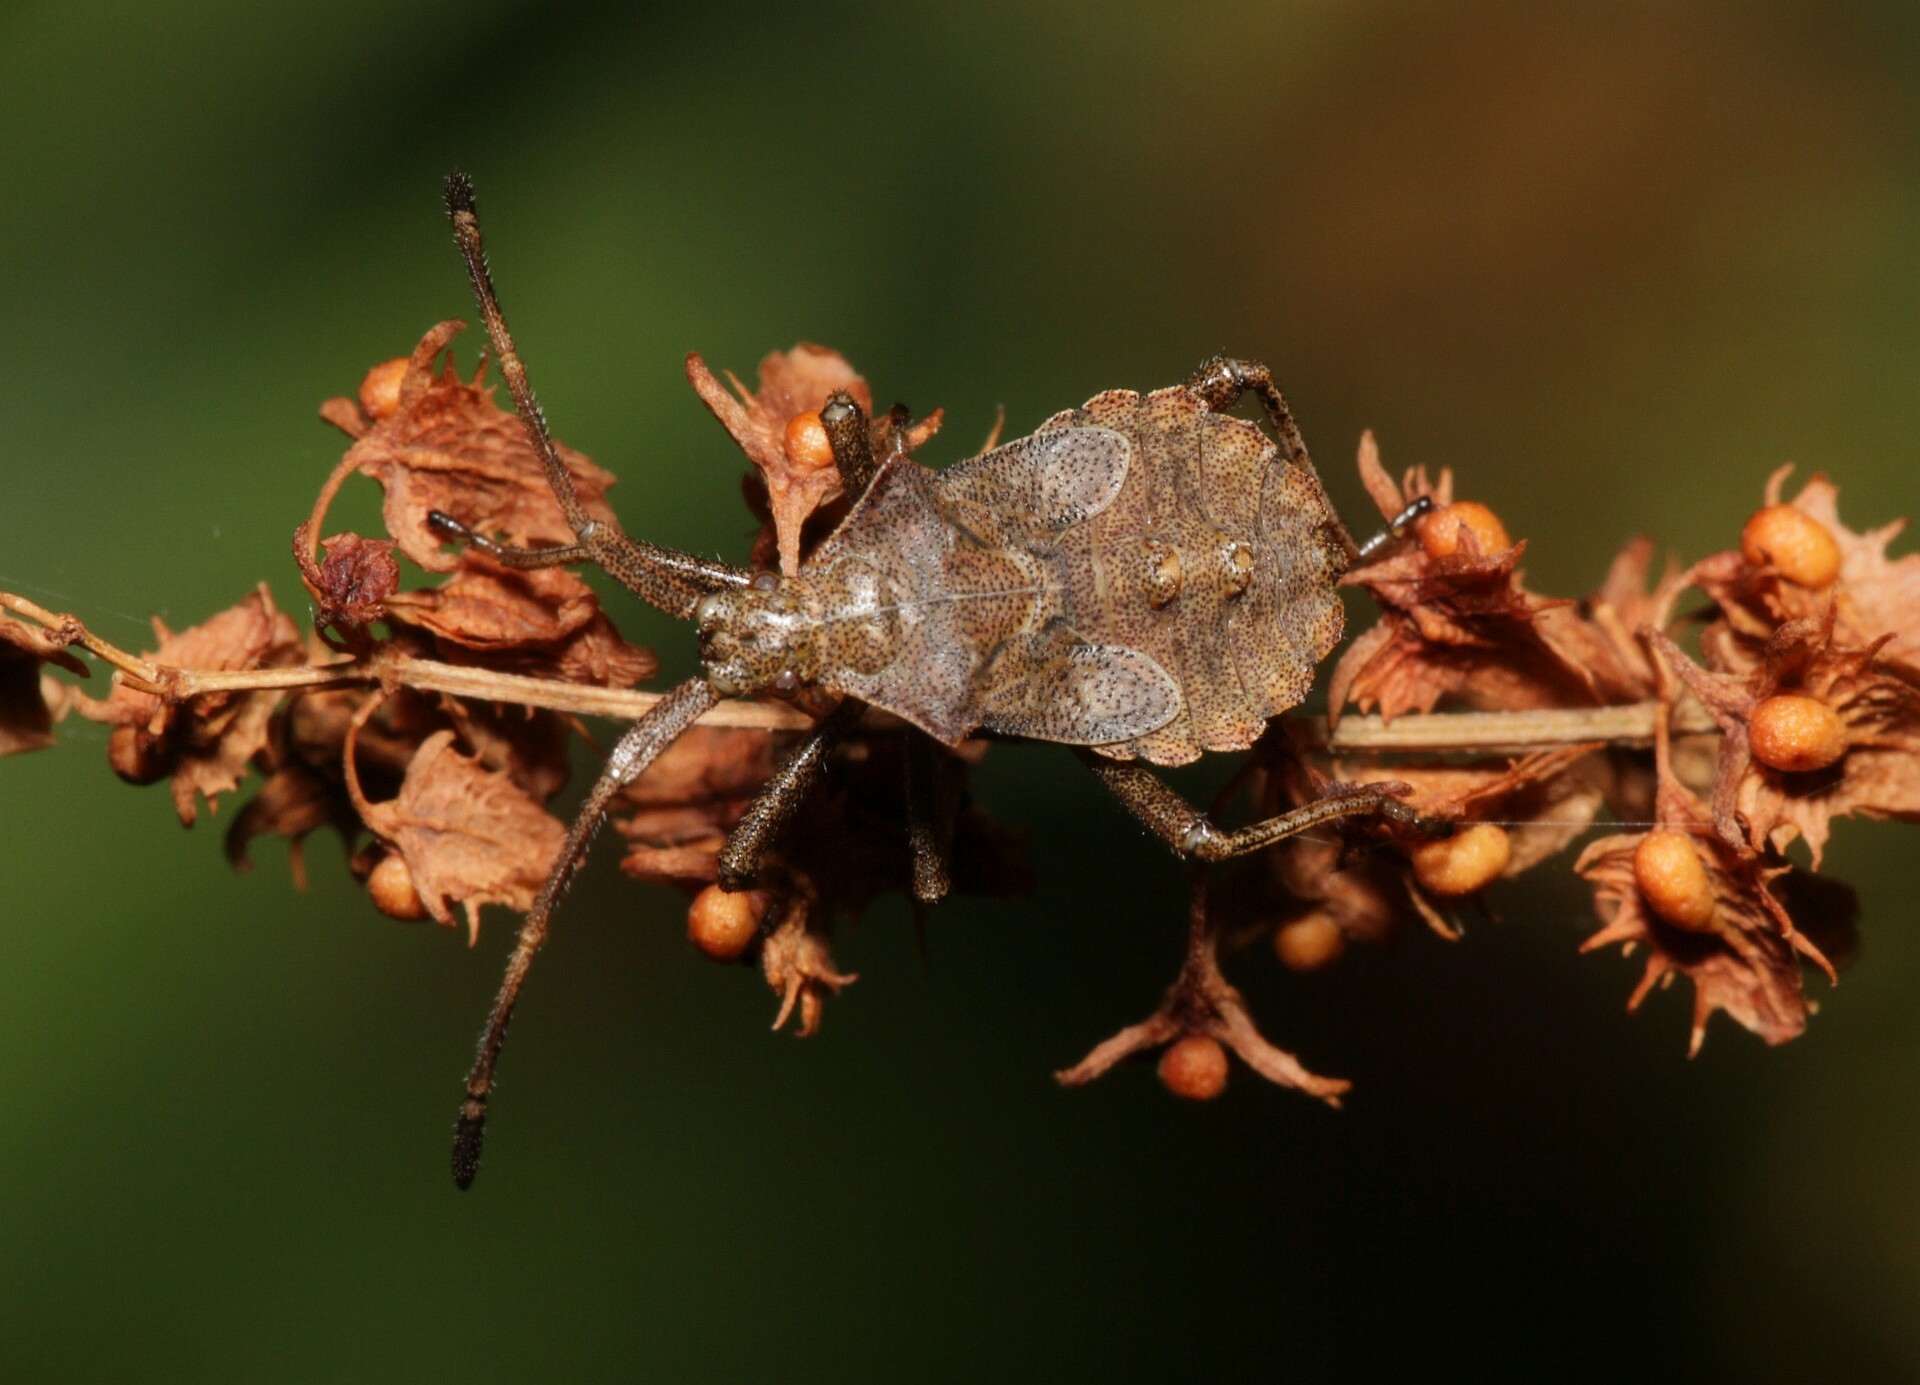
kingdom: Animalia
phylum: Arthropoda
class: Insecta
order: Hemiptera
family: Coreidae
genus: Coreus
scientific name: Coreus marginatus
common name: Dock bug
